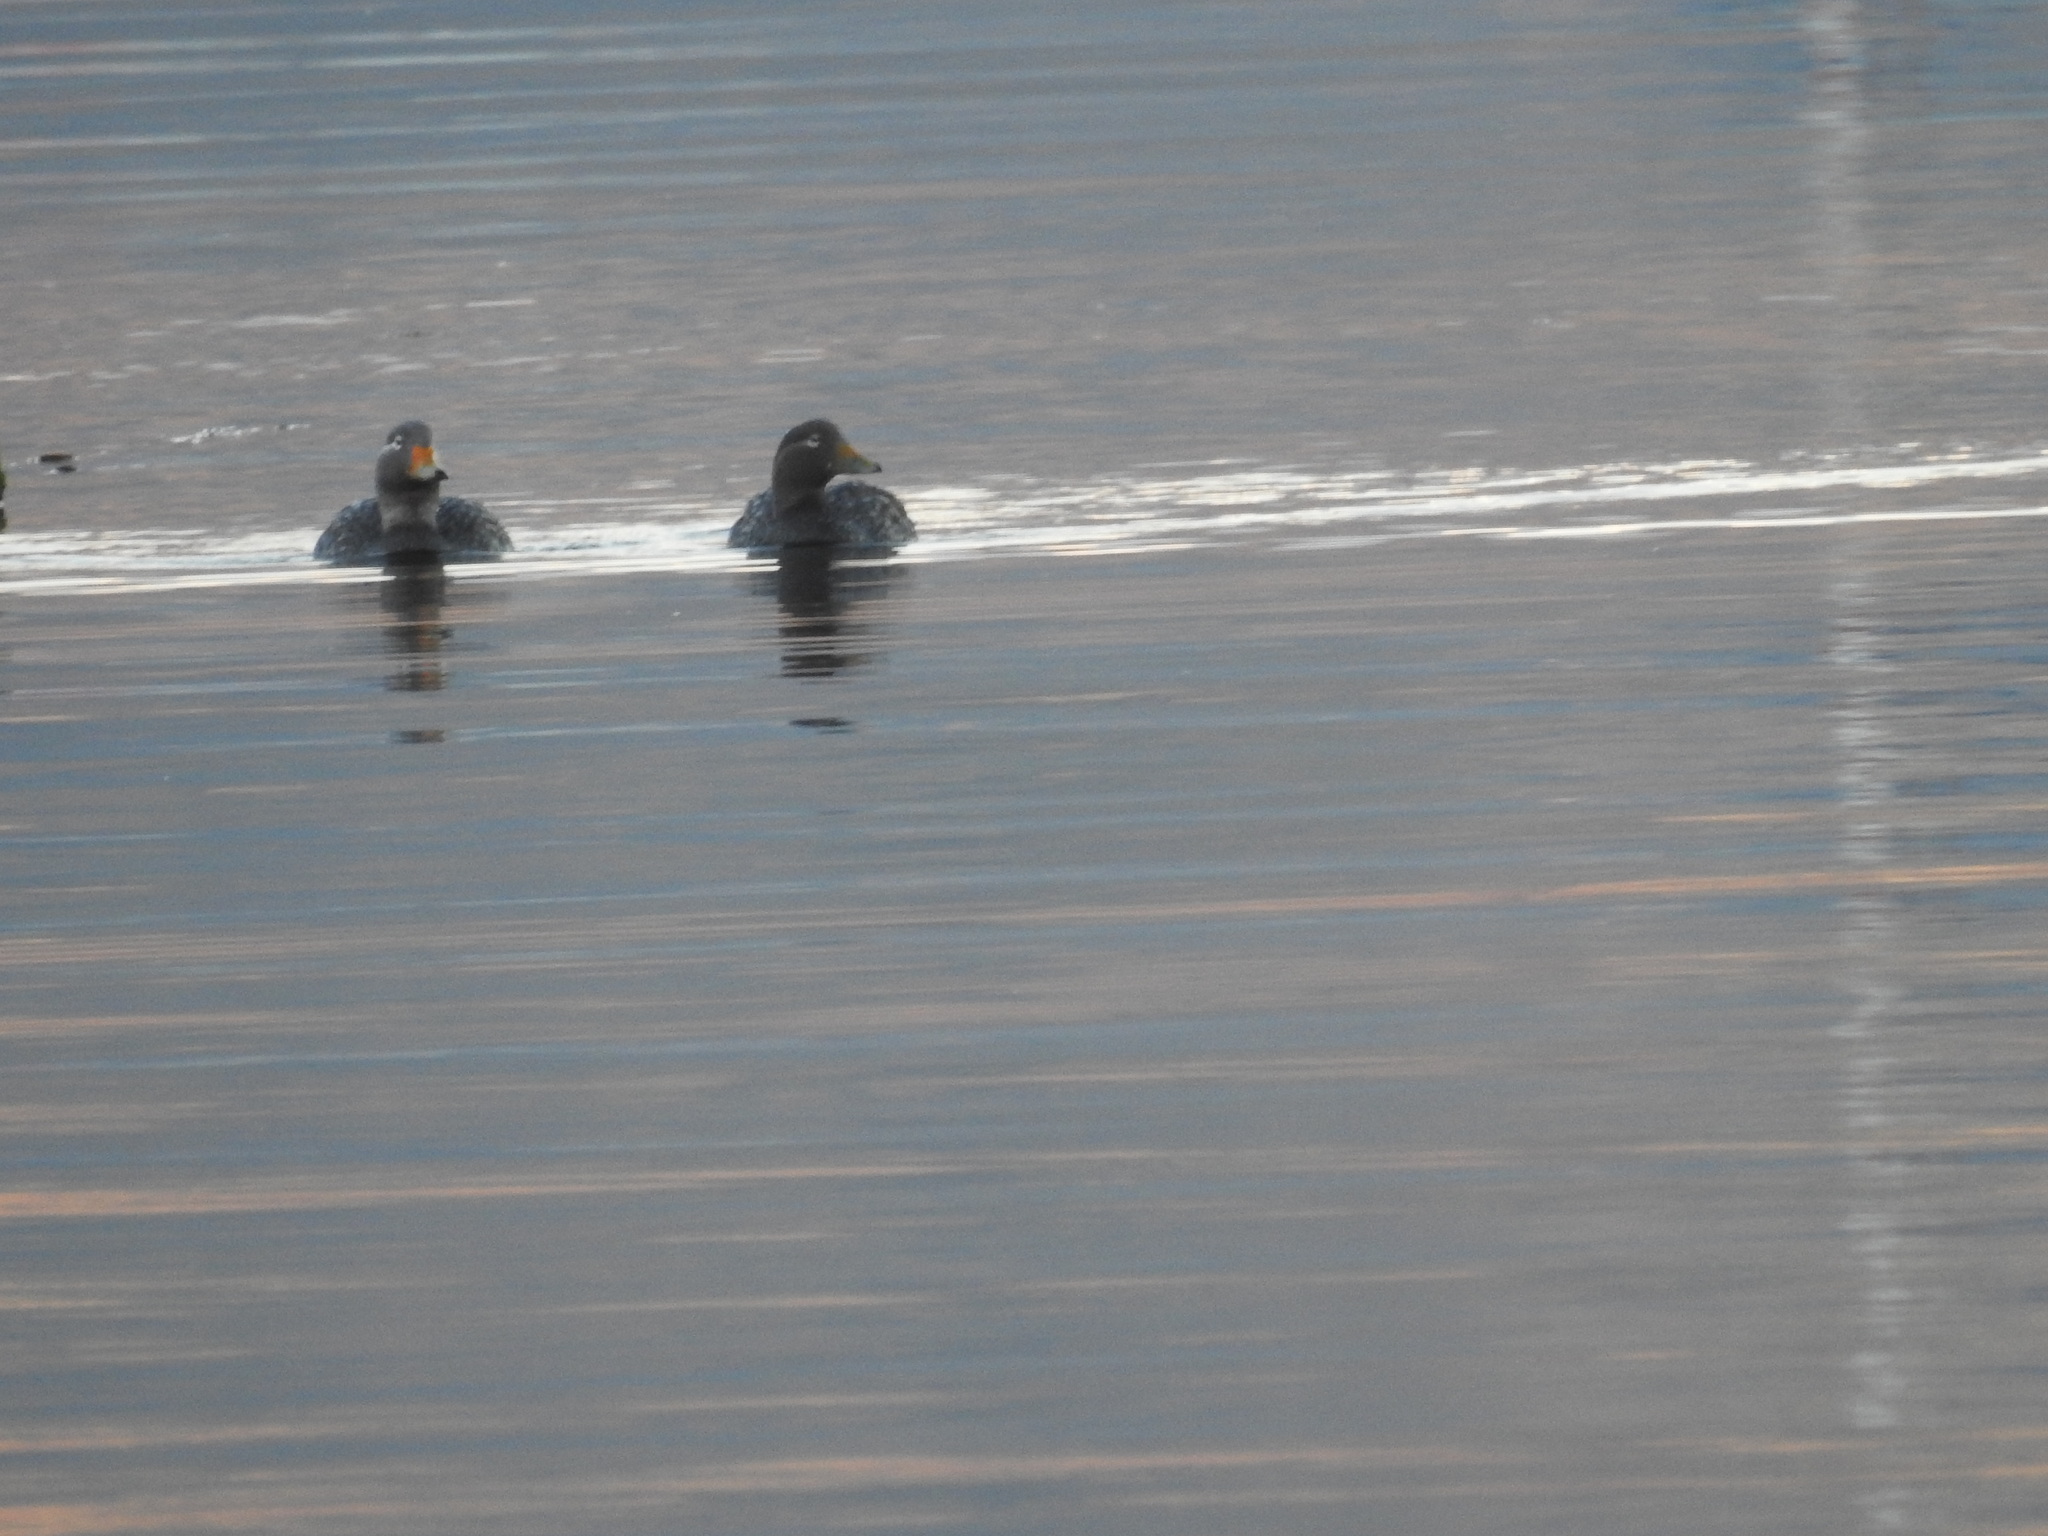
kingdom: Animalia
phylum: Chordata
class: Aves
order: Anseriformes
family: Anatidae
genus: Tachyeres
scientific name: Tachyeres patachonicus
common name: Flying steamer duck
